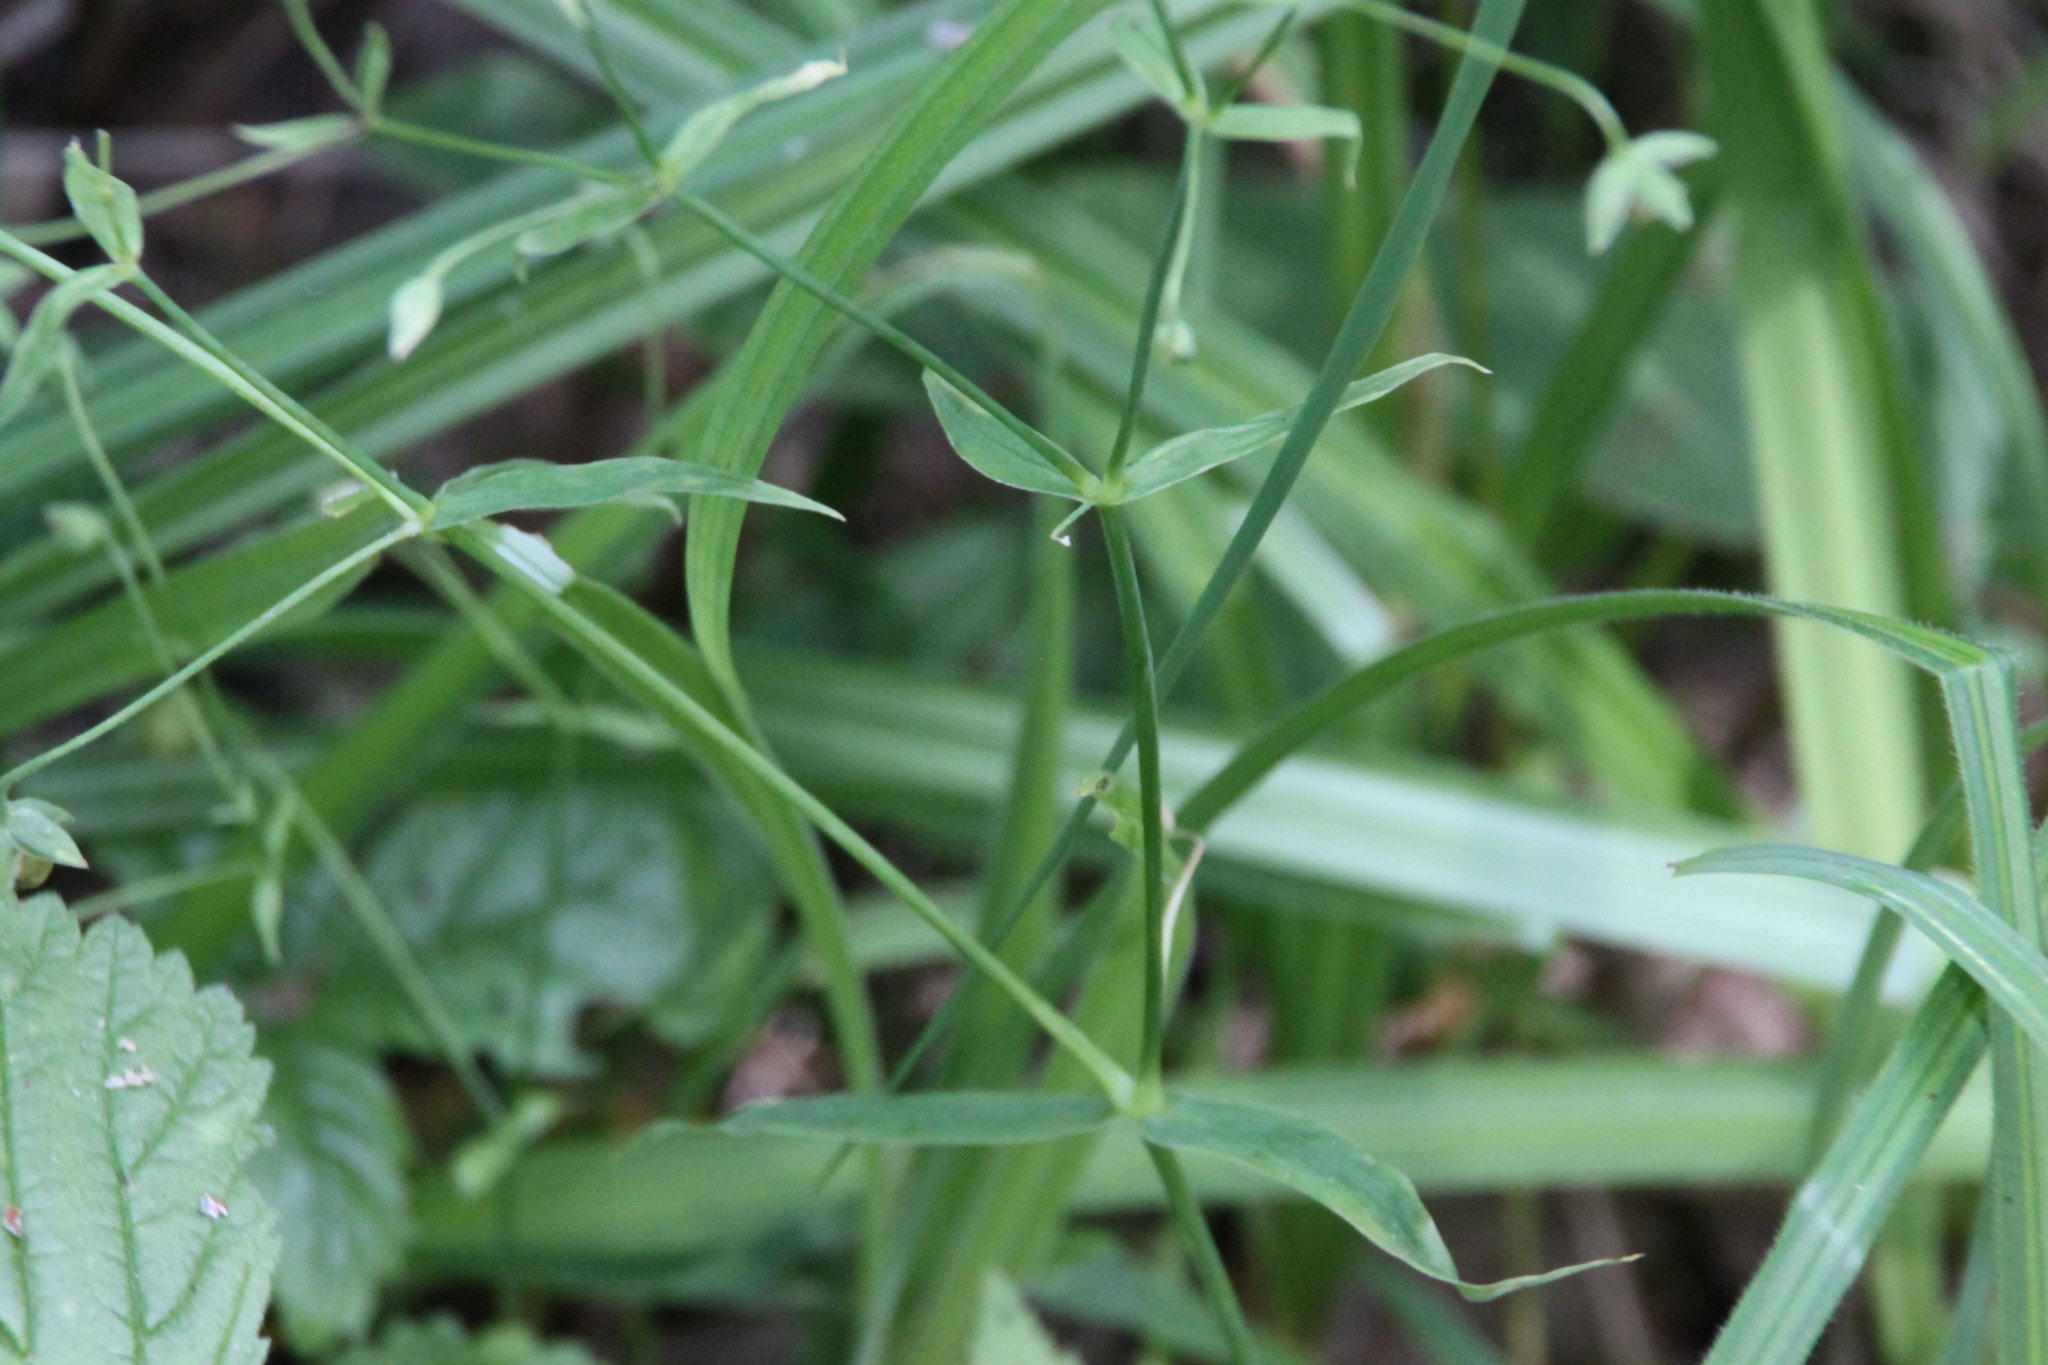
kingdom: Plantae
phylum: Tracheophyta
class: Magnoliopsida
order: Caryophyllales
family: Caryophyllaceae
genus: Stellaria
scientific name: Stellaria graminea
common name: Grass-like starwort
